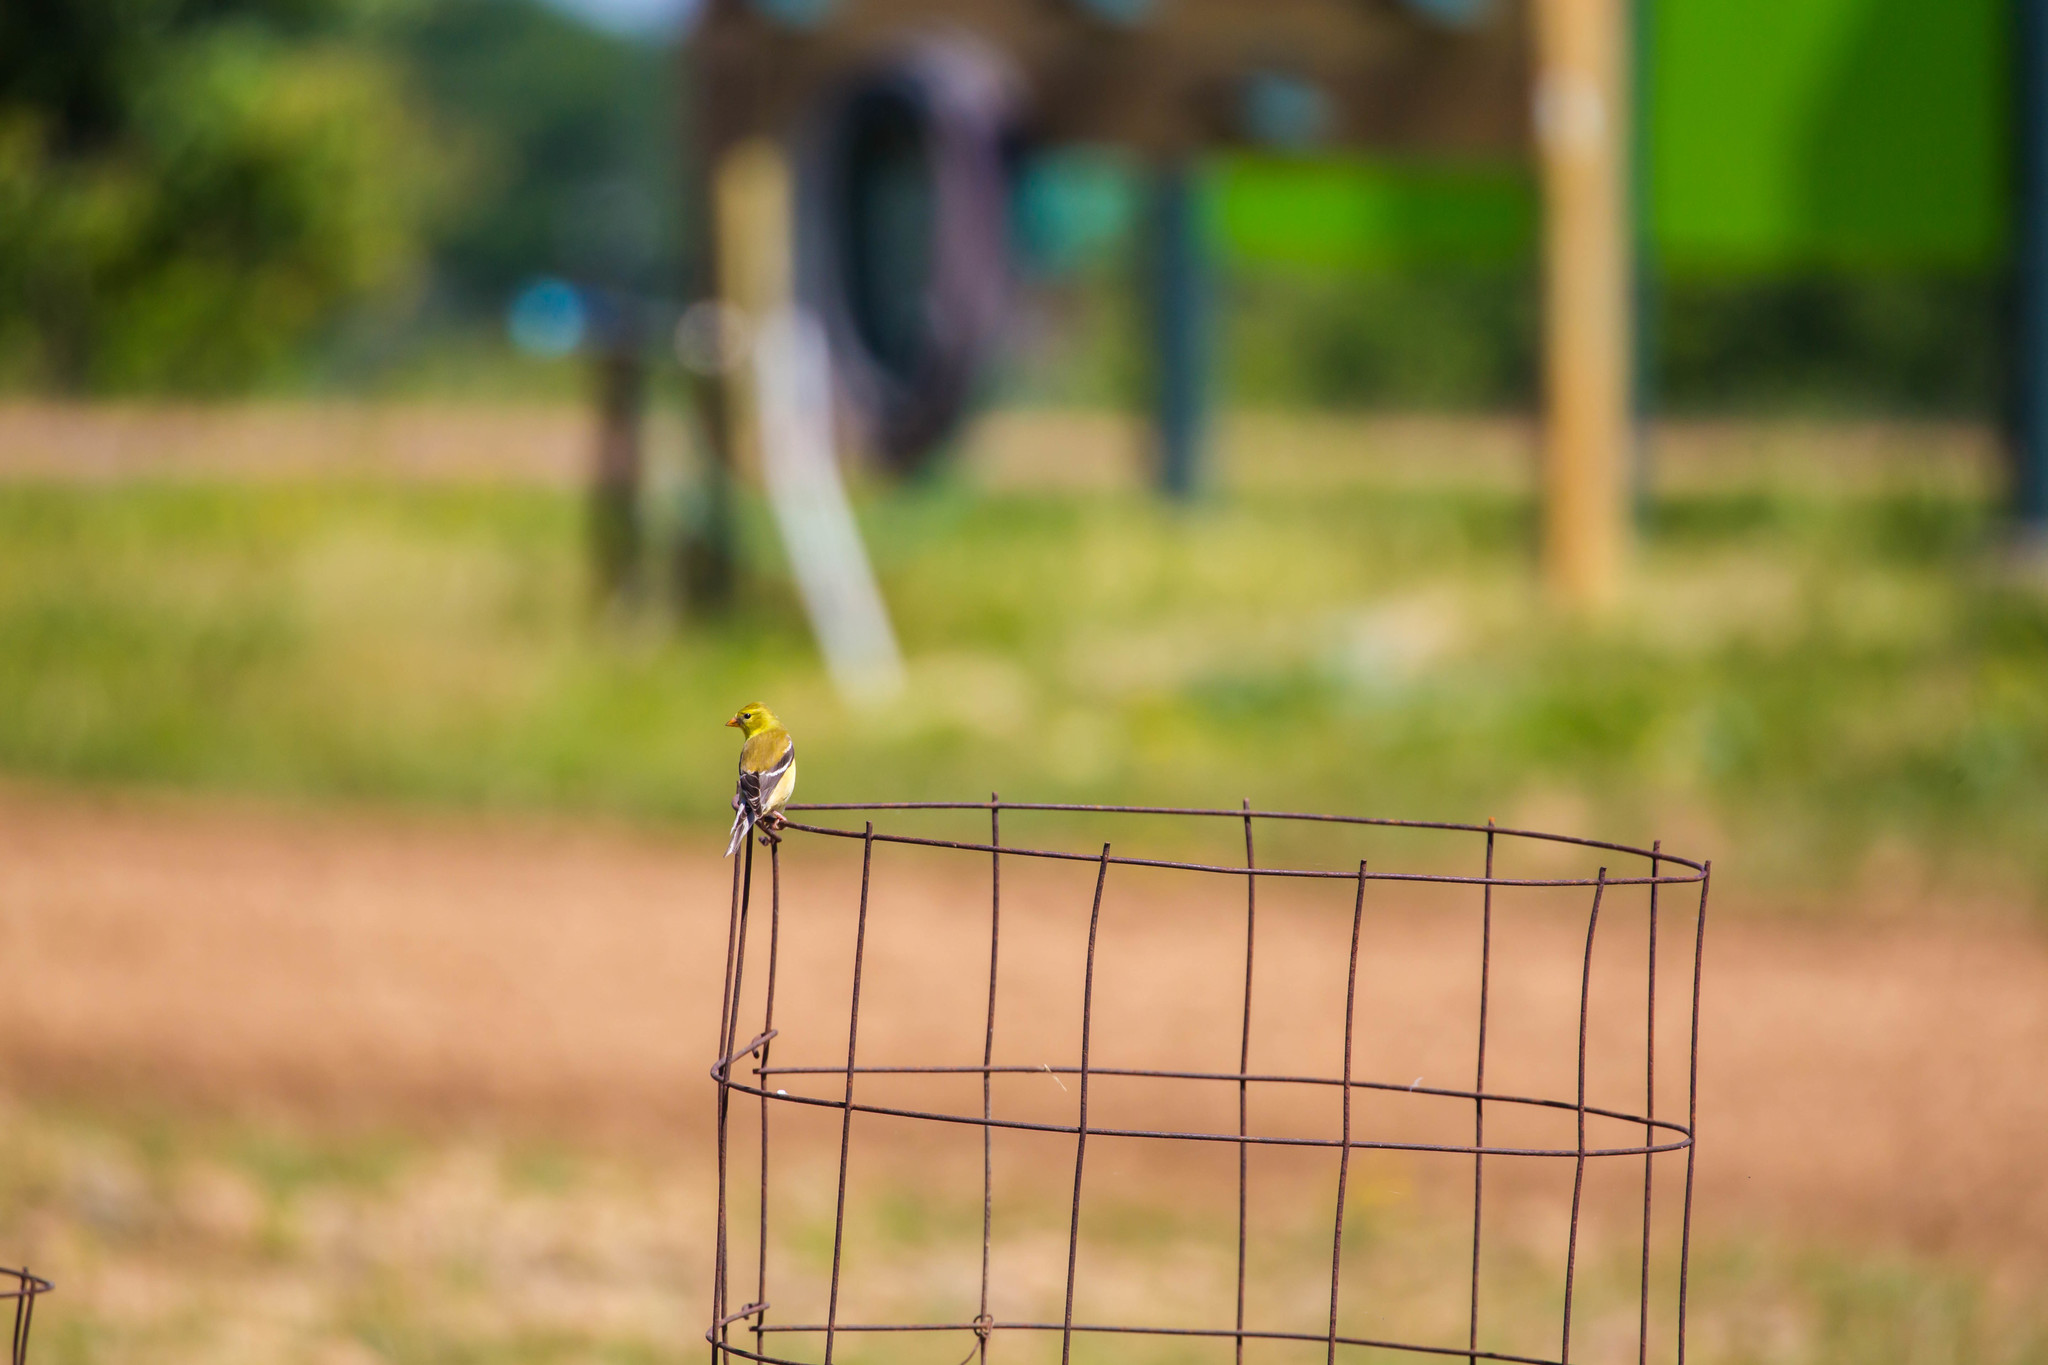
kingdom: Animalia
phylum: Chordata
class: Aves
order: Passeriformes
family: Fringillidae
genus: Spinus
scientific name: Spinus tristis
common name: American goldfinch
